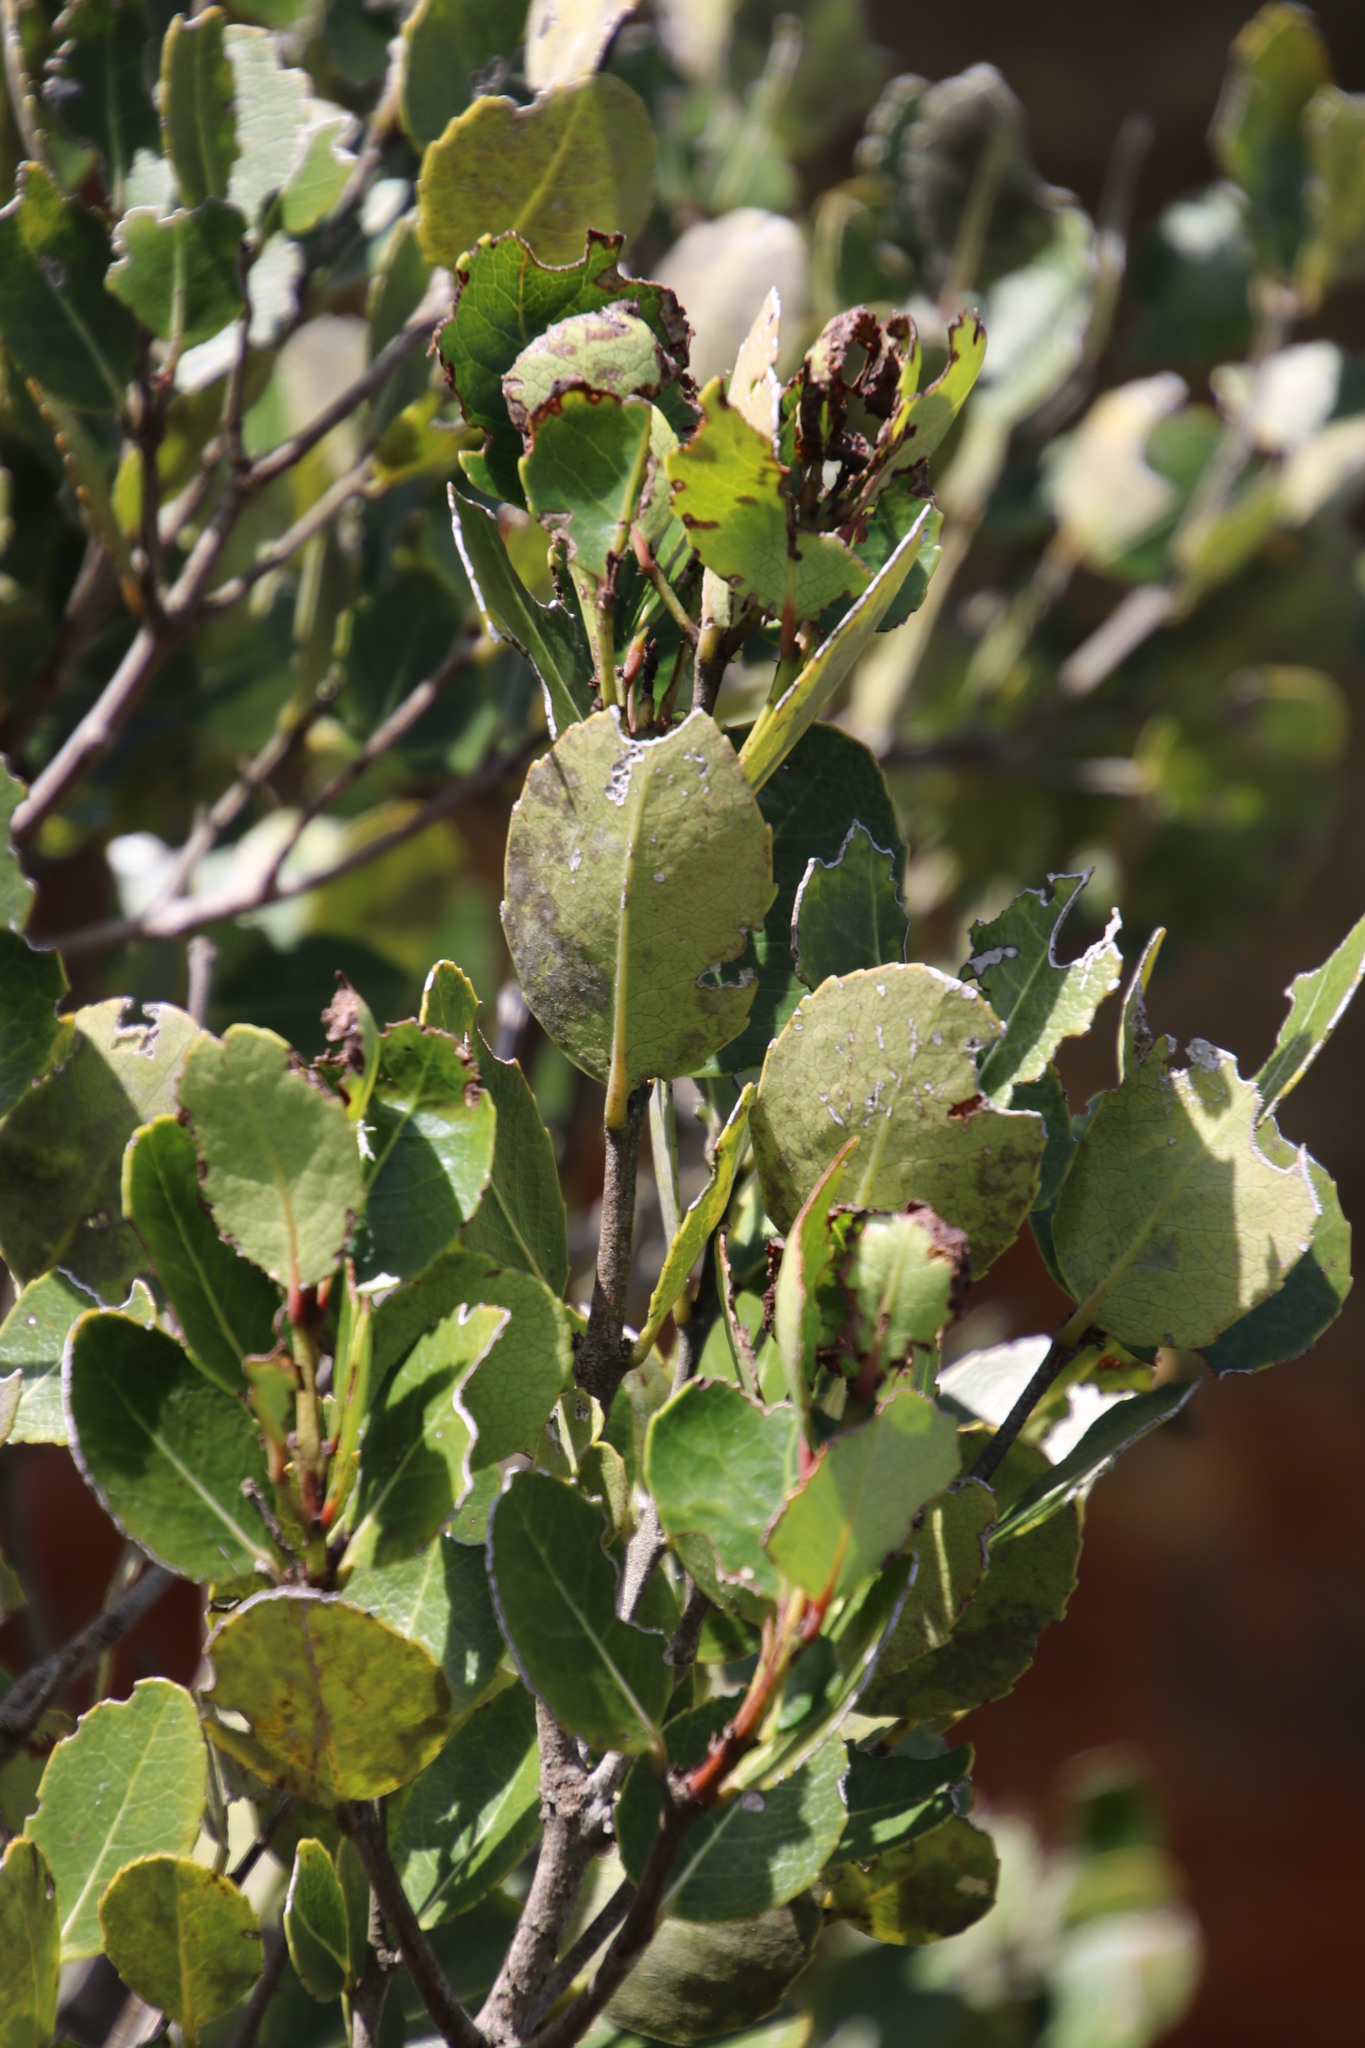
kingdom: Plantae
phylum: Tracheophyta
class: Magnoliopsida
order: Celastrales
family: Celastraceae
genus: Cassine
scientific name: Cassine peragua
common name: Cape saffron
